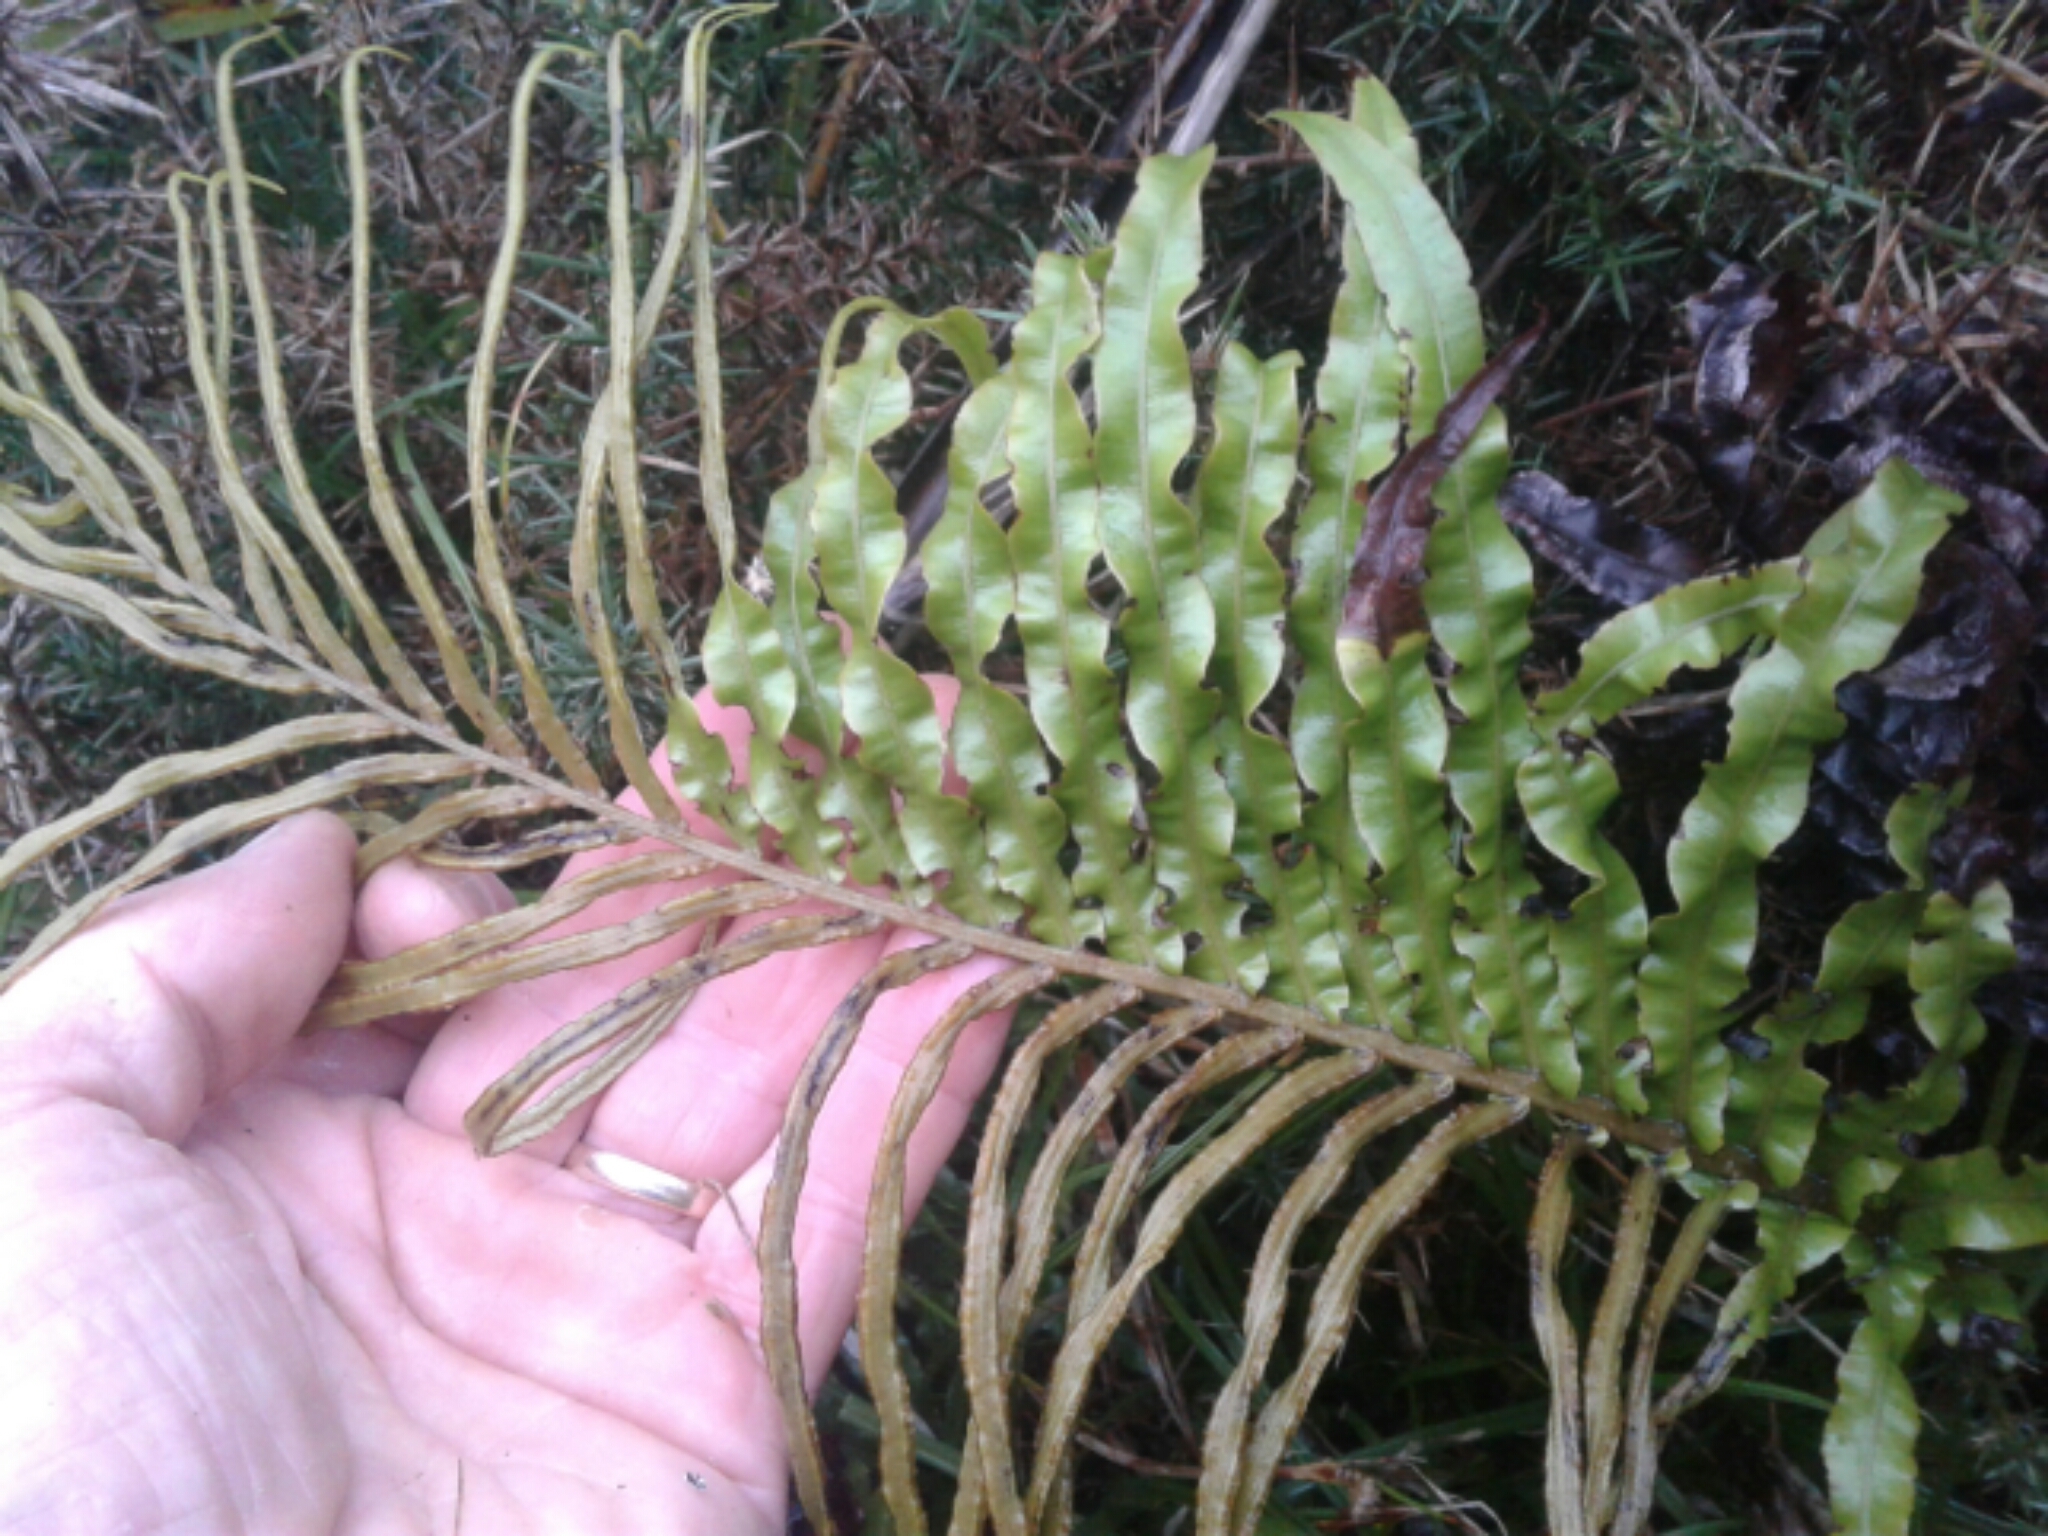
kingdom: Plantae
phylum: Tracheophyta
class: Polypodiopsida
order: Polypodiales
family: Blechnaceae
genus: Parablechnum
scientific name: Parablechnum novae-zelandiae
